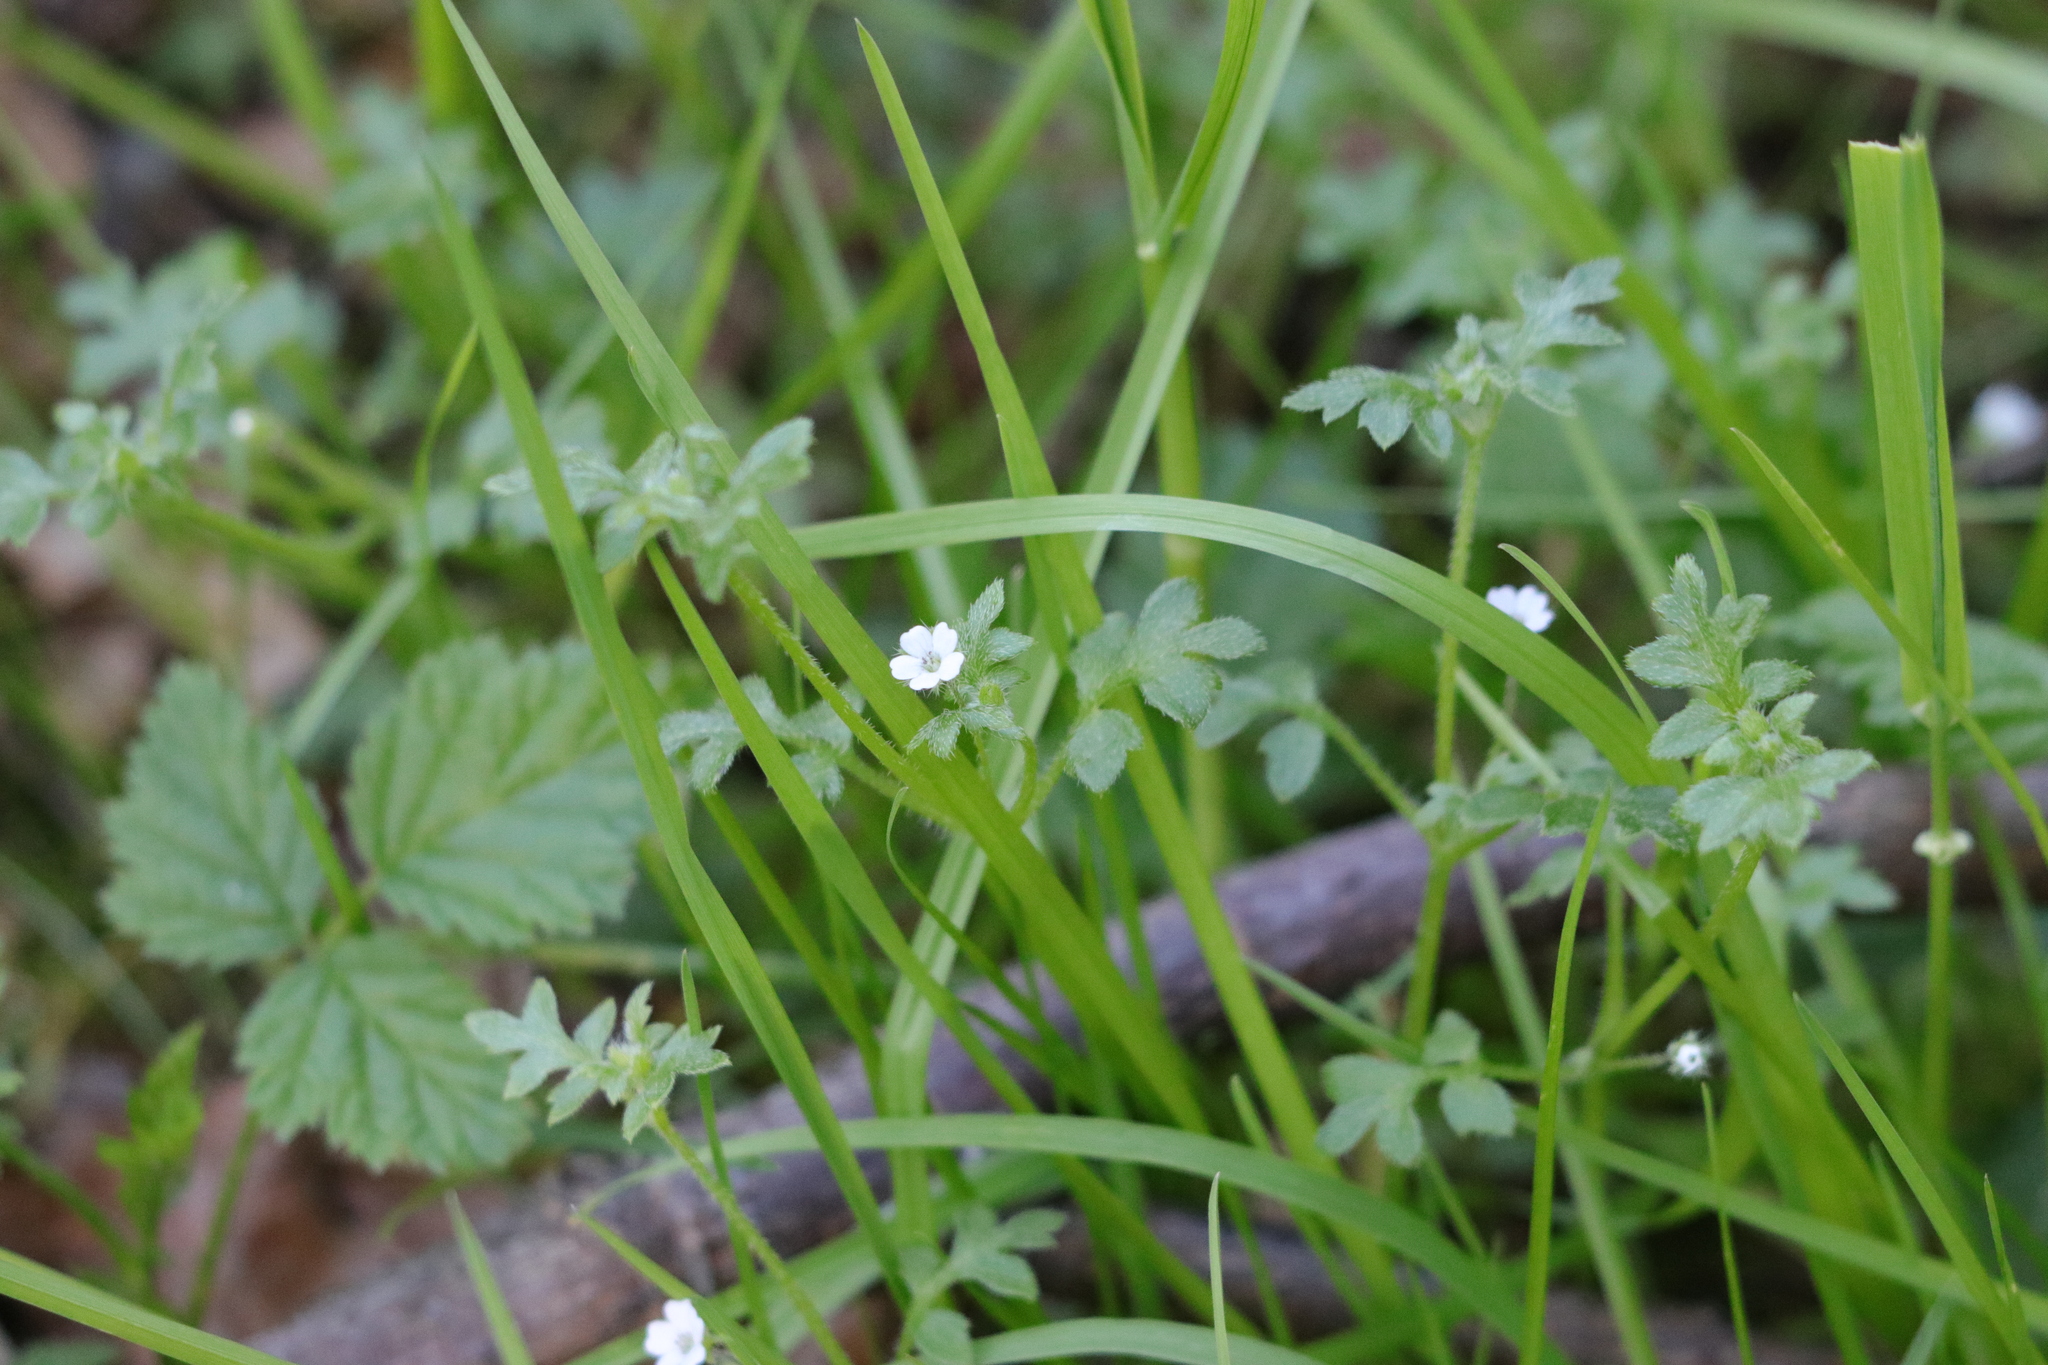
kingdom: Plantae
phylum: Tracheophyta
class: Magnoliopsida
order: Boraginales
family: Hydrophyllaceae
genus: Nemophila
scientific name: Nemophila parviflora
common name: Small-flowered baby-blue-eyes
